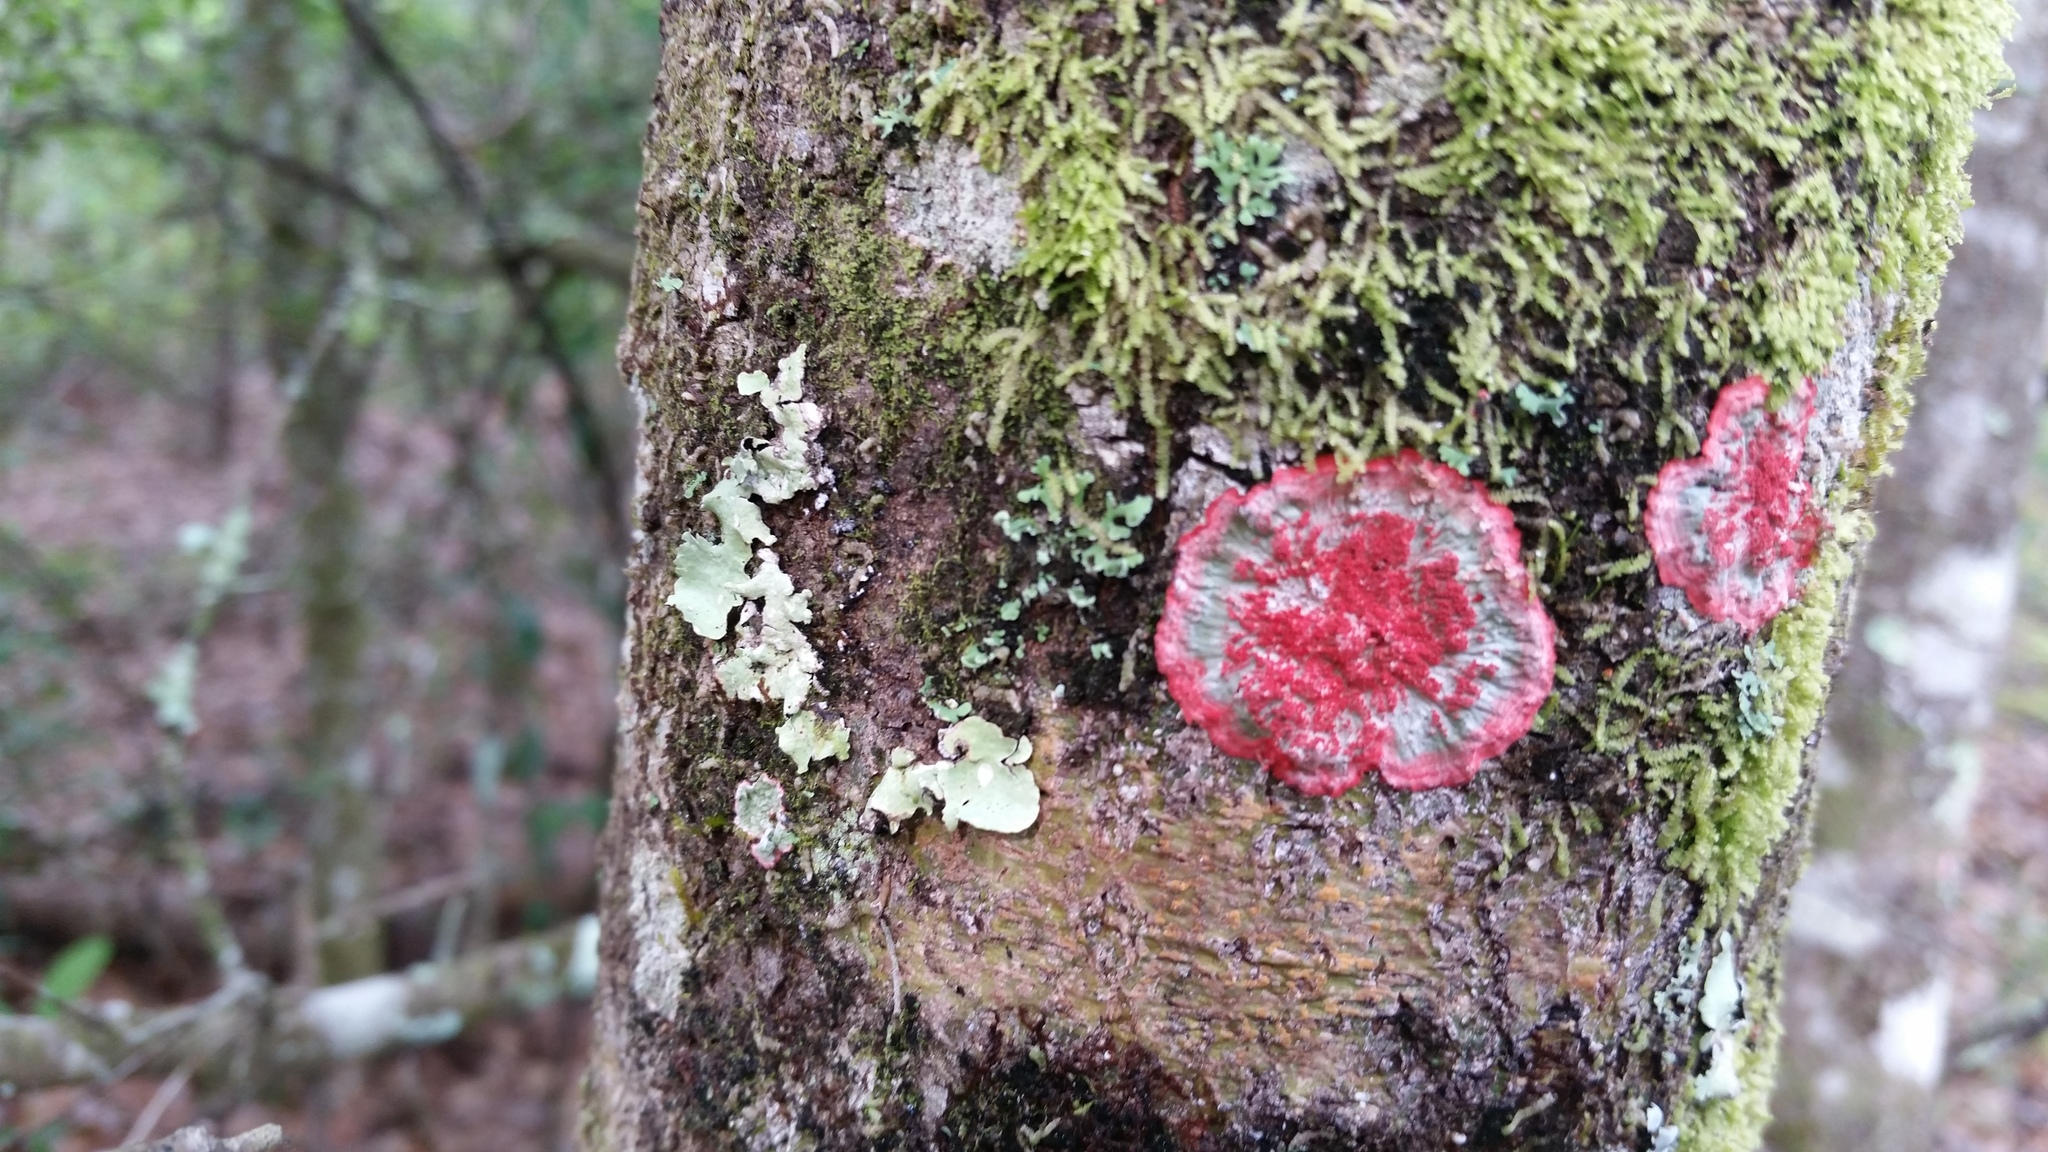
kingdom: Fungi
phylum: Ascomycota
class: Arthoniomycetes
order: Arthoniales
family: Arthoniaceae
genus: Herpothallon
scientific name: Herpothallon rubrocinctum
